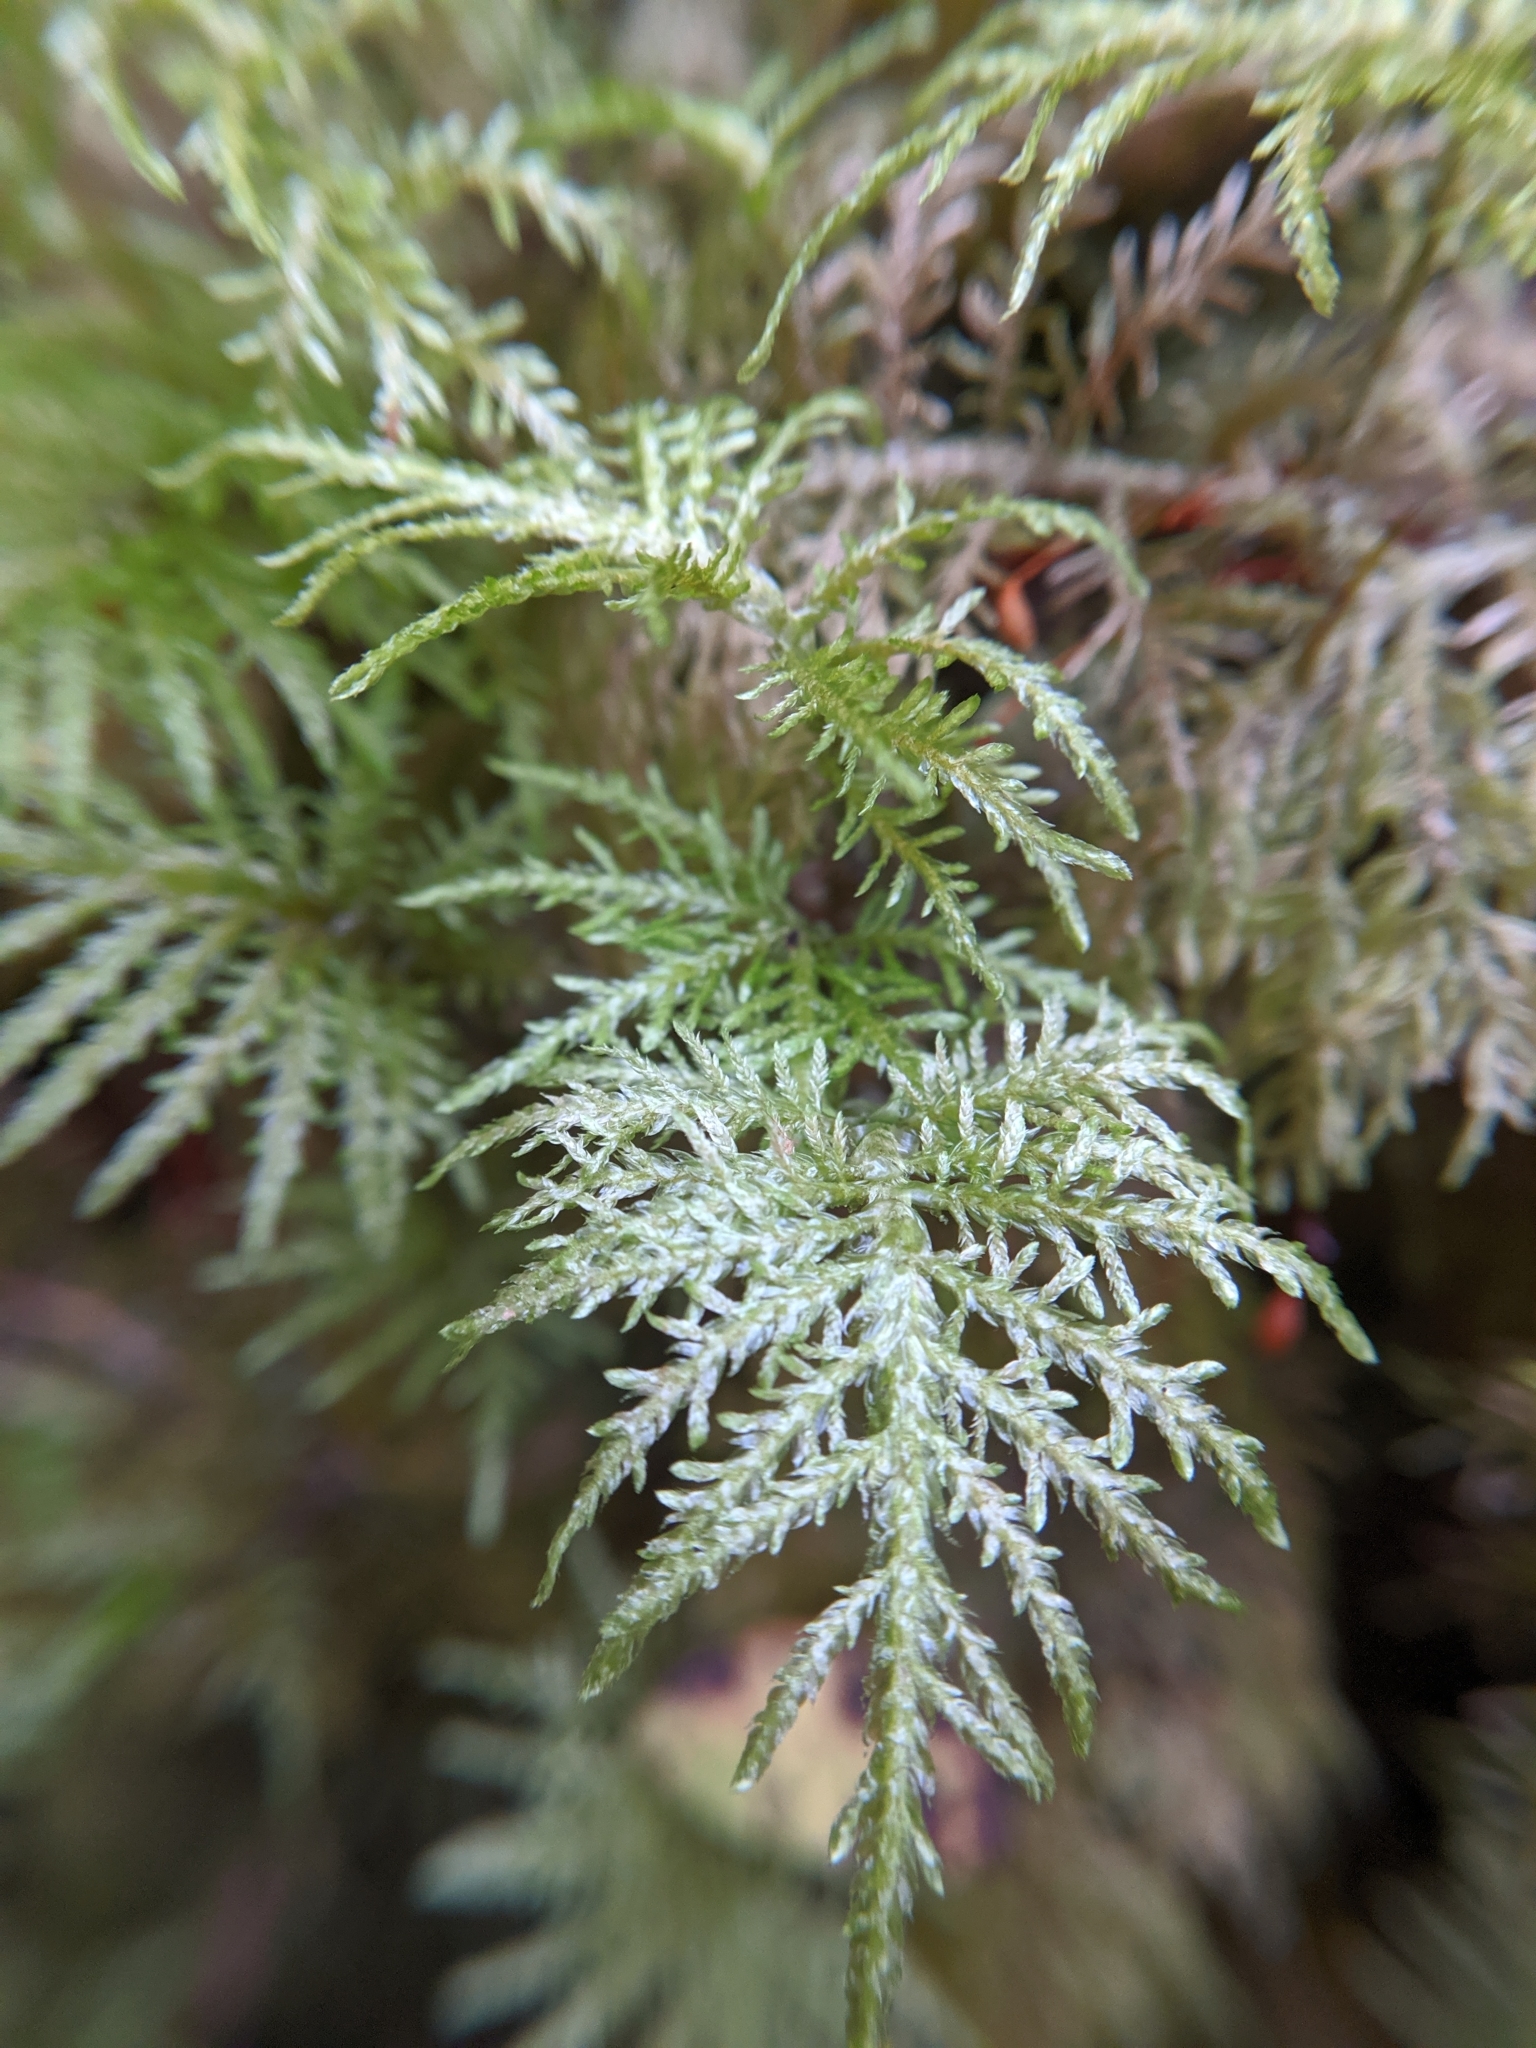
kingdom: Plantae
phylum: Bryophyta
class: Bryopsida
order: Hypnales
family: Hylocomiaceae
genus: Hylocomium
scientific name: Hylocomium splendens
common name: Stairstep moss
